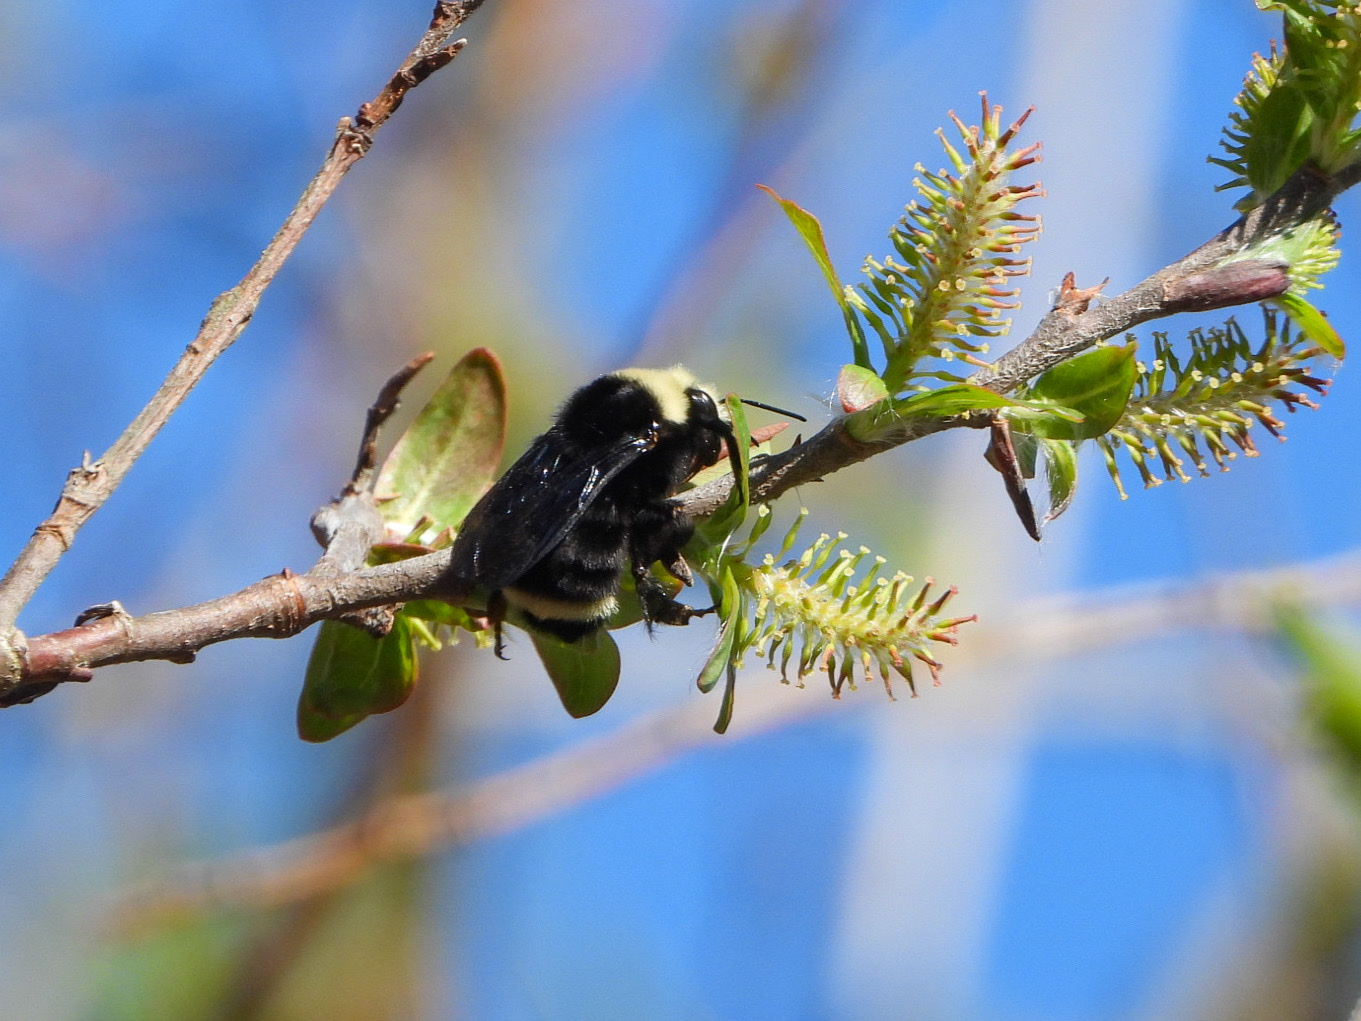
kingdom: Animalia
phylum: Arthropoda
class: Insecta
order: Hymenoptera
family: Apidae
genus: Bombus
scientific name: Bombus vosnesenskii
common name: Vosnesensky bumble bee
